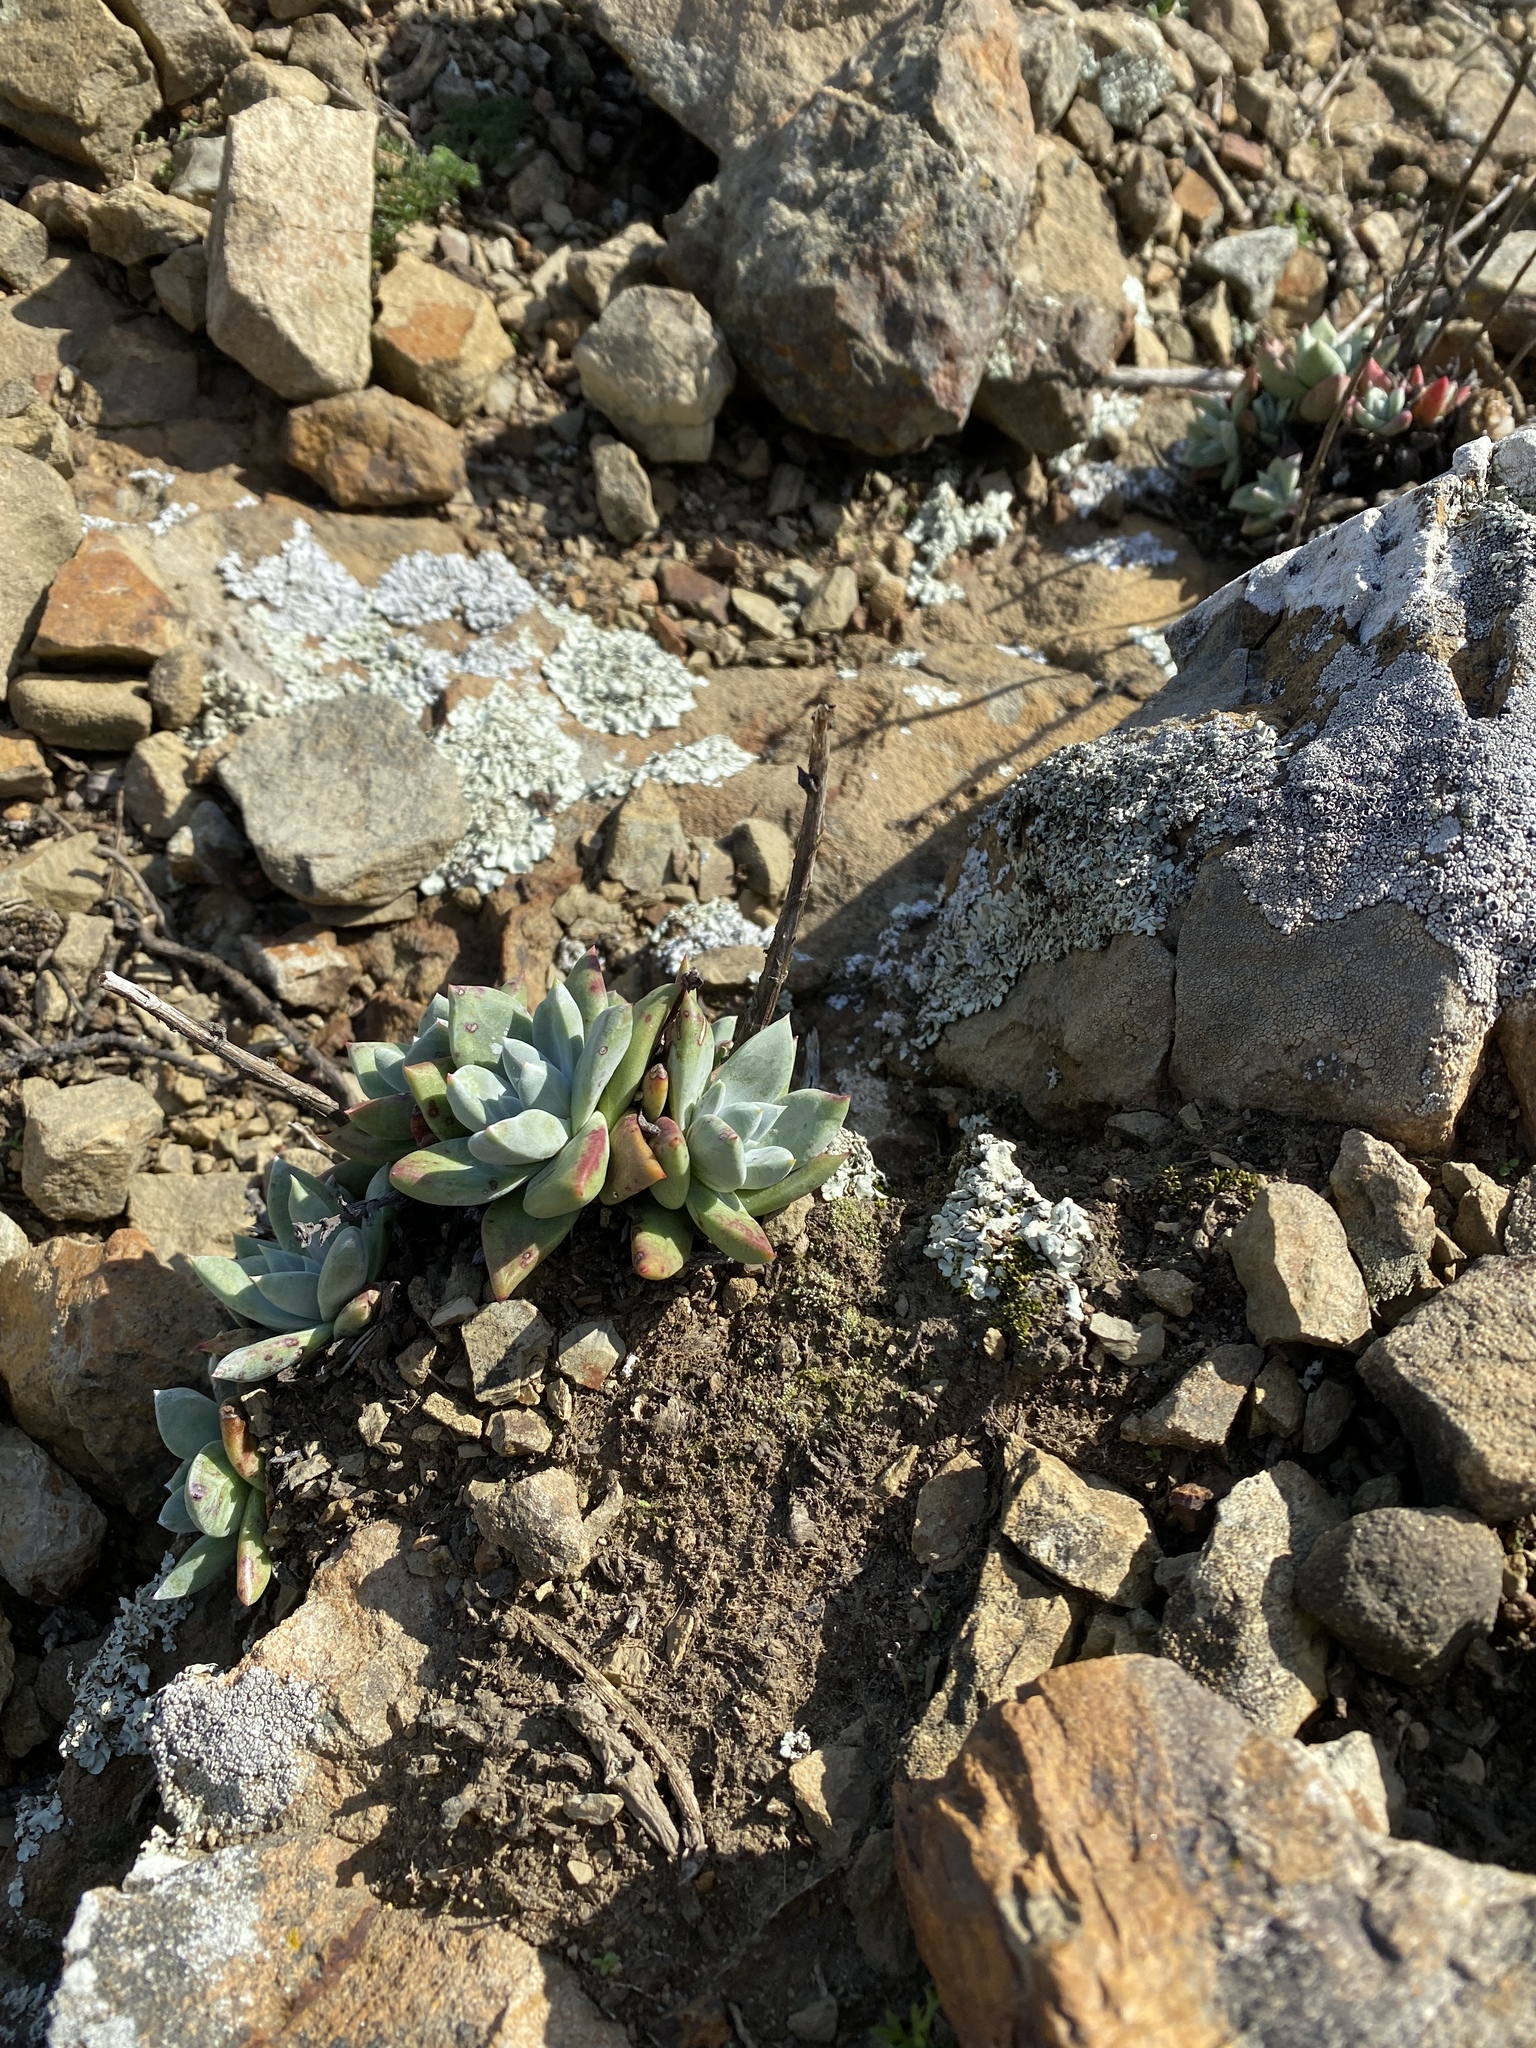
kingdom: Plantae
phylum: Tracheophyta
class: Magnoliopsida
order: Saxifragales
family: Crassulaceae
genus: Dudleya
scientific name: Dudleya farinosa
